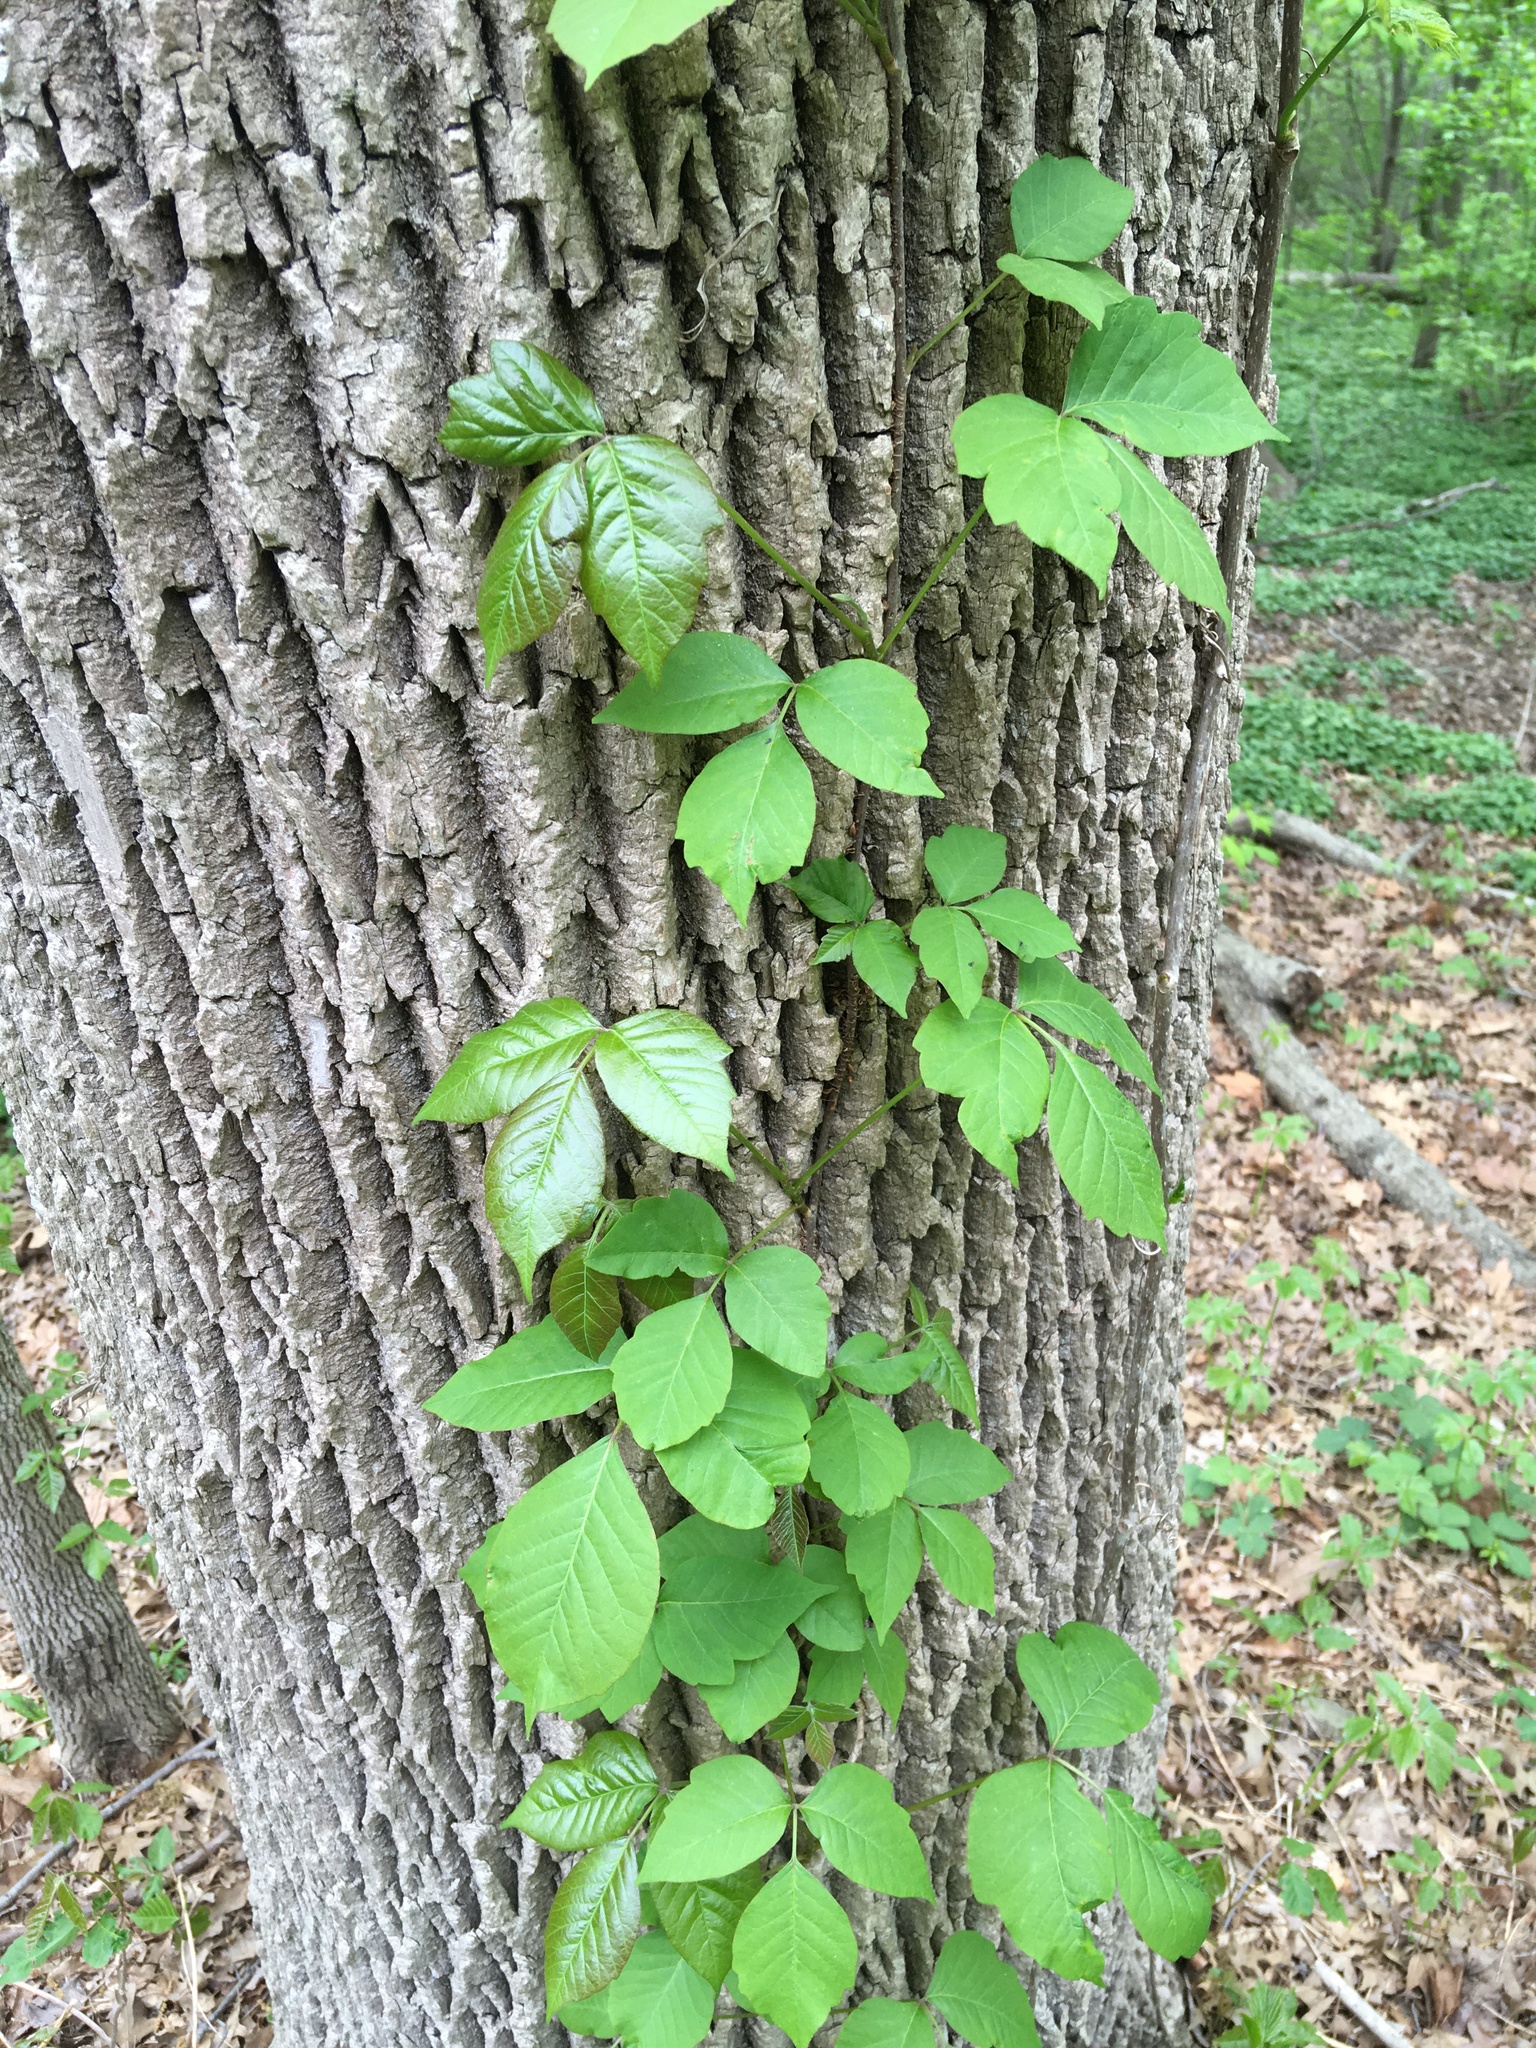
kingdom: Plantae
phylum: Tracheophyta
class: Magnoliopsida
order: Sapindales
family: Anacardiaceae
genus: Toxicodendron
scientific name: Toxicodendron radicans
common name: Poison ivy
